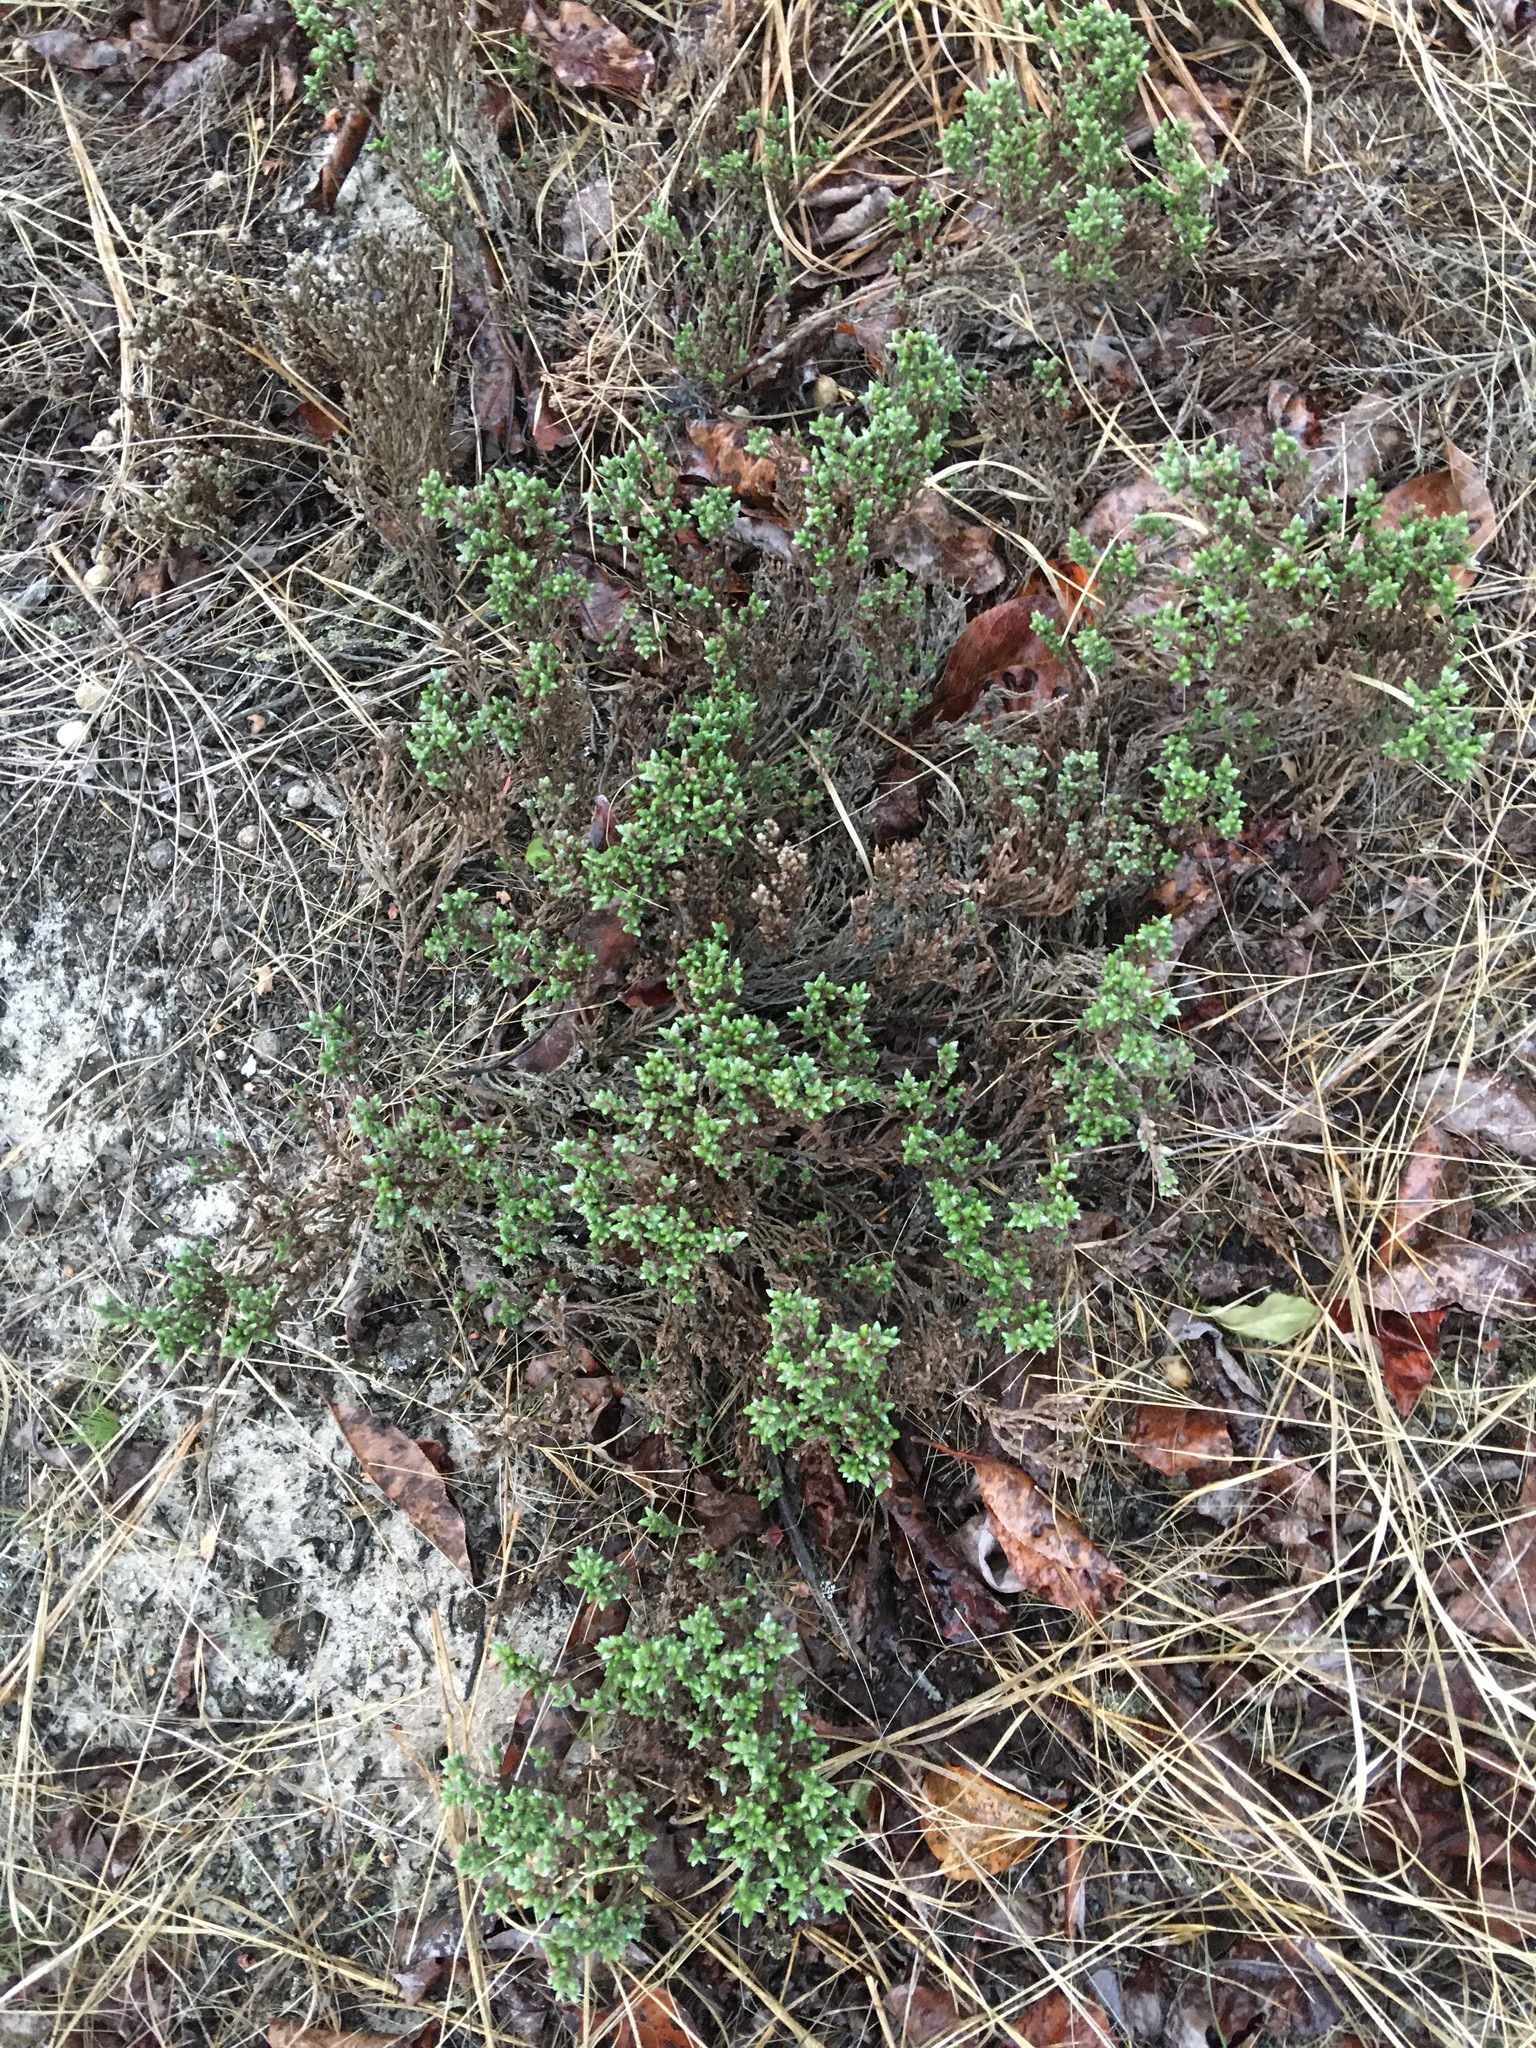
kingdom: Plantae
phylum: Tracheophyta
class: Magnoliopsida
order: Malvales
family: Cistaceae
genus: Hudsonia
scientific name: Hudsonia tomentosa
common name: Beach-heath
